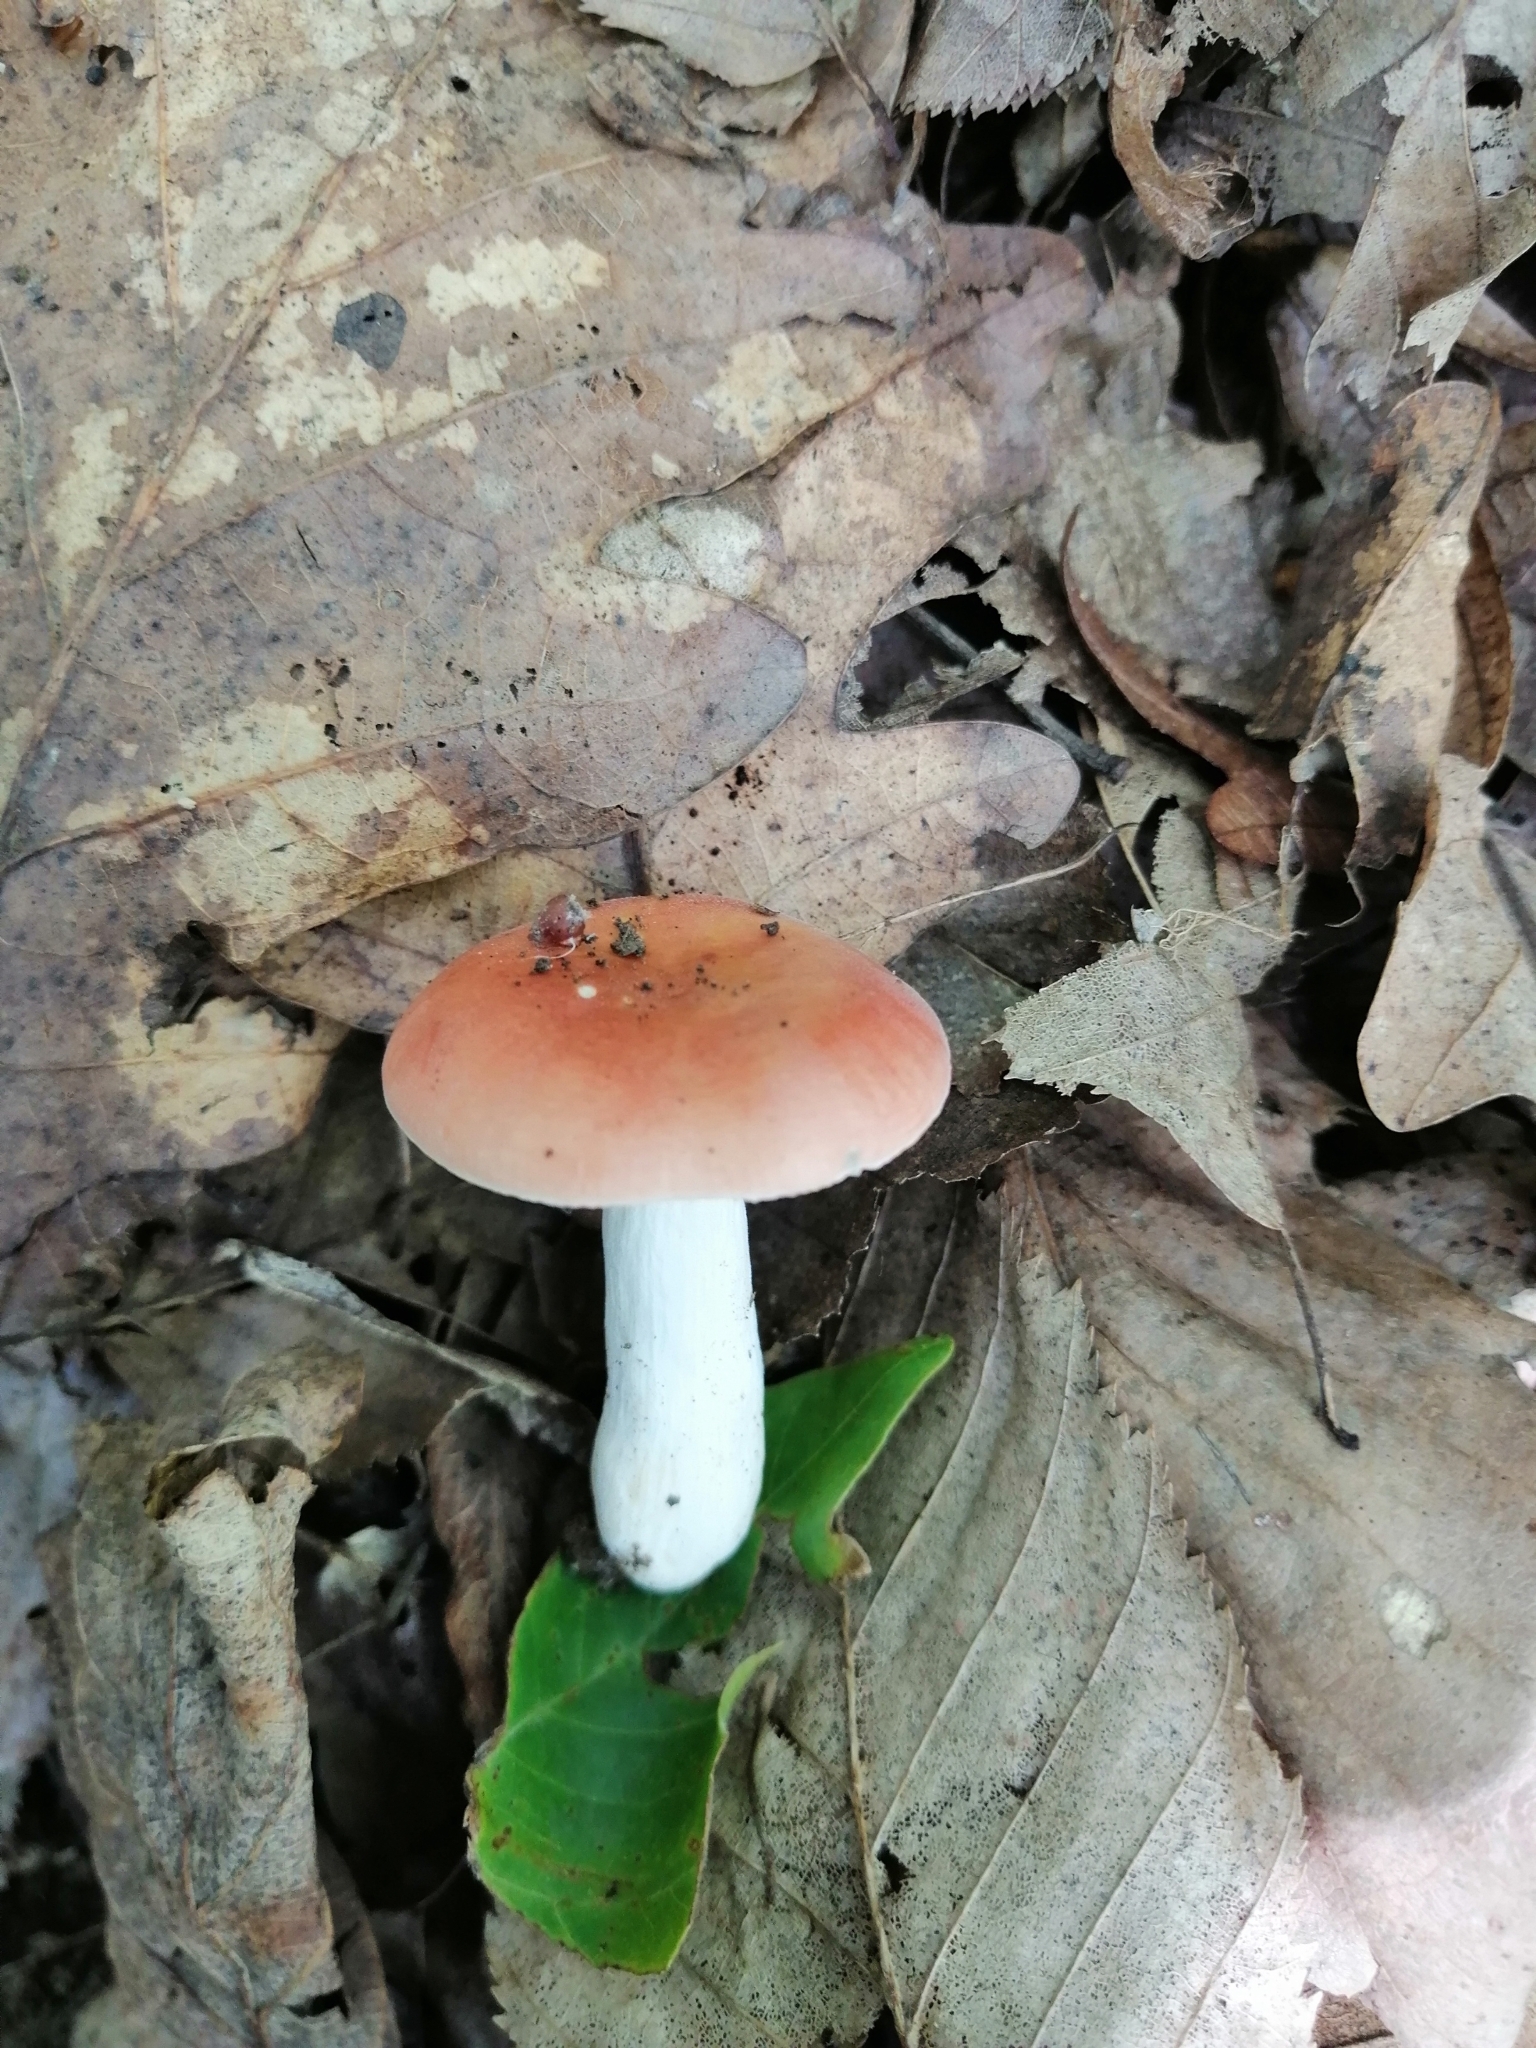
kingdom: Fungi
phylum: Basidiomycota
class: Agaricomycetes
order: Russulales
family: Russulaceae
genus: Russula
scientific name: Russula risigallina
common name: Golden brittlegill
